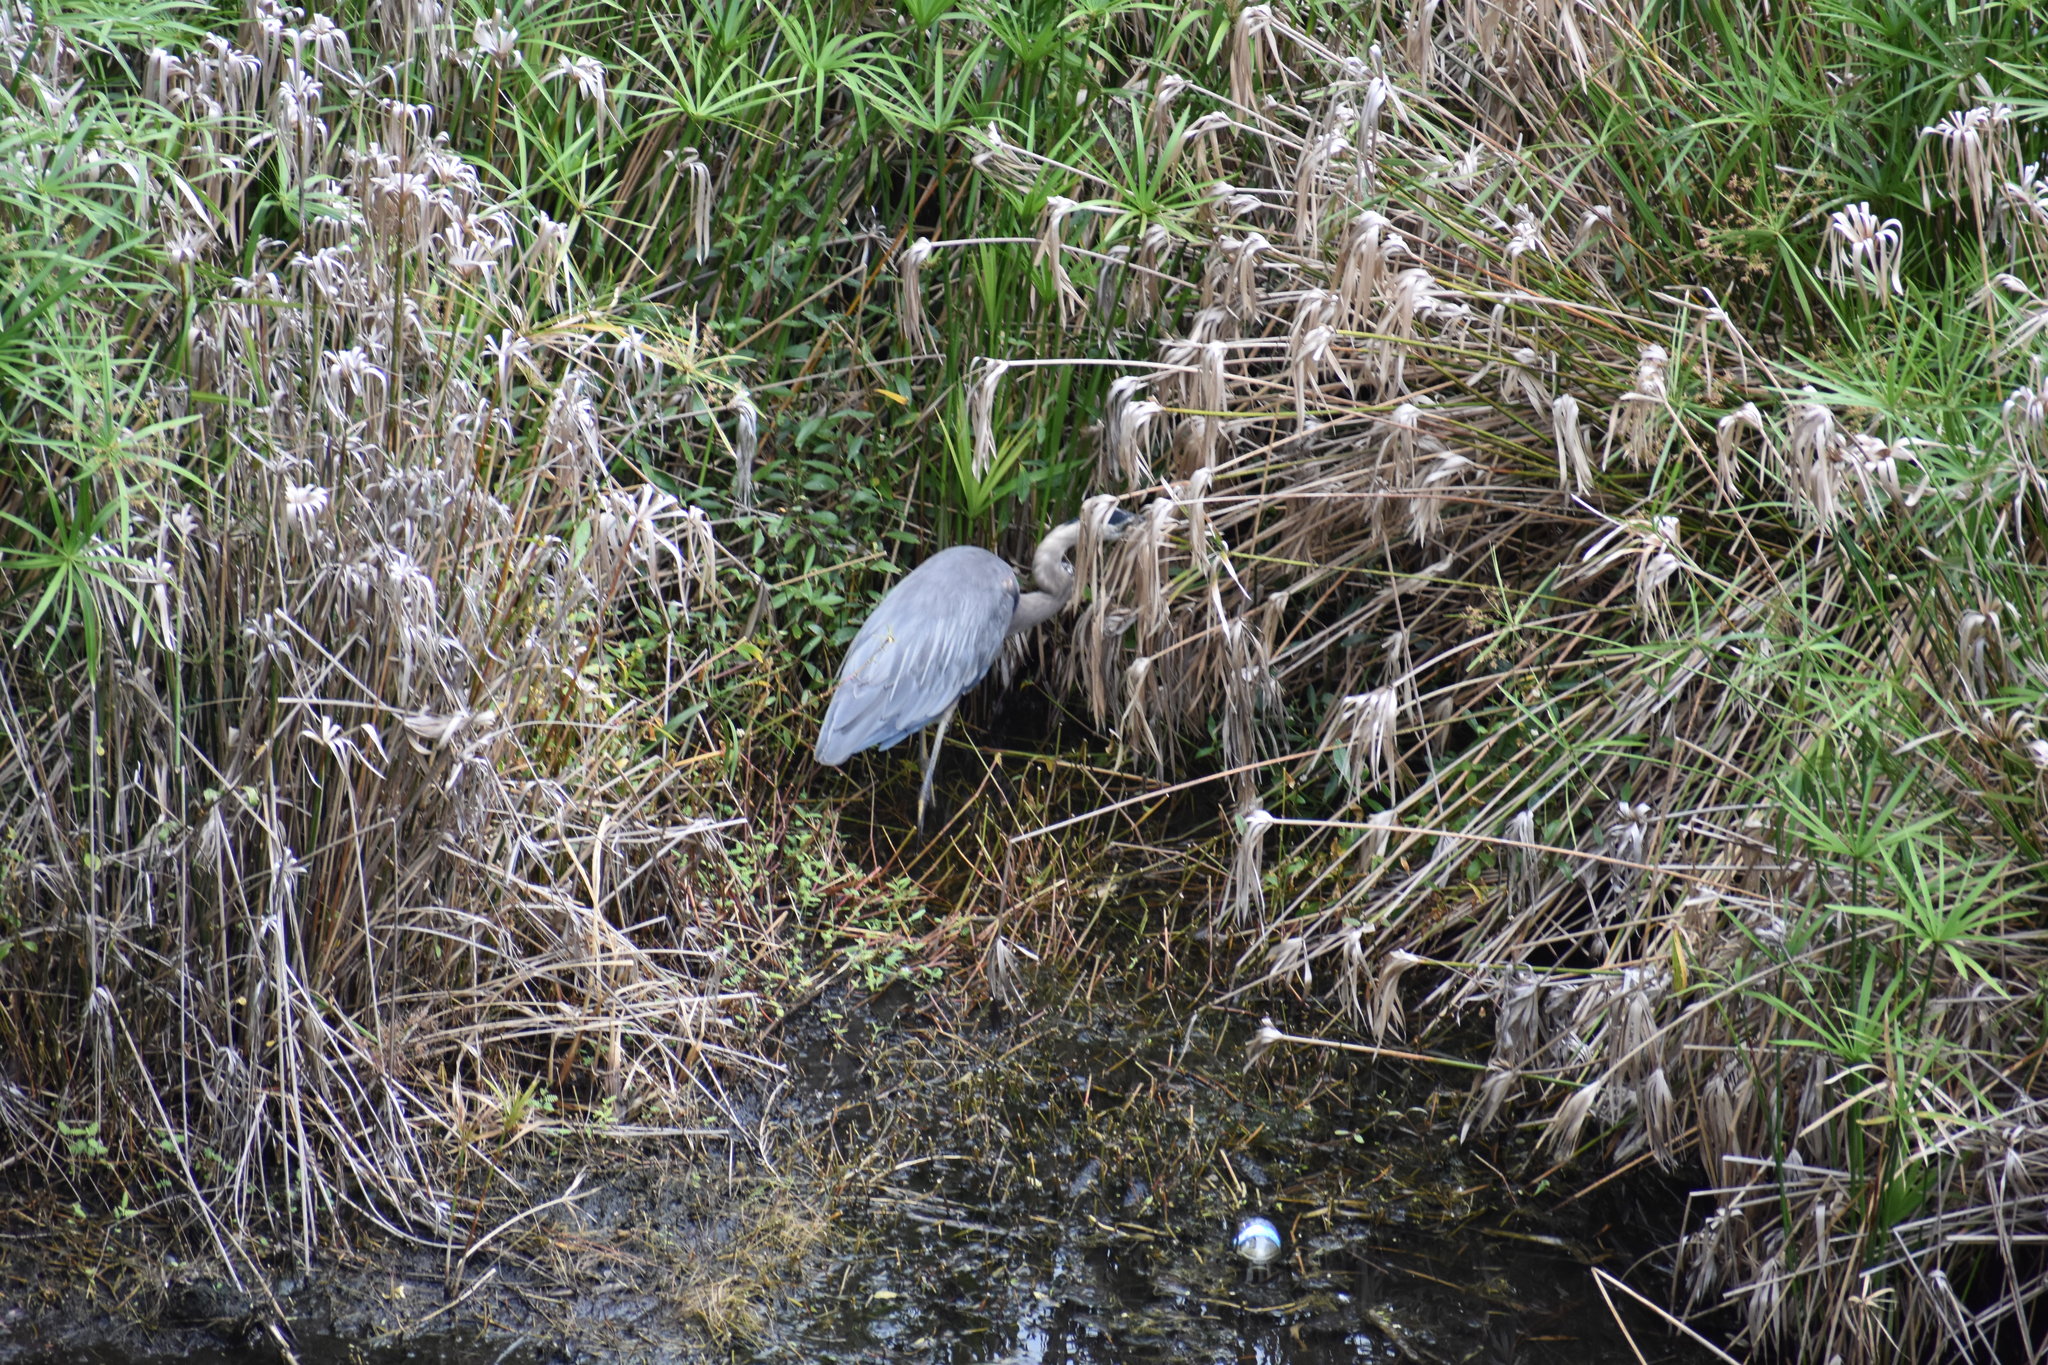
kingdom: Animalia
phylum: Chordata
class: Aves
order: Pelecaniformes
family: Ardeidae
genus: Ardea
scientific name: Ardea herodias
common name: Great blue heron
